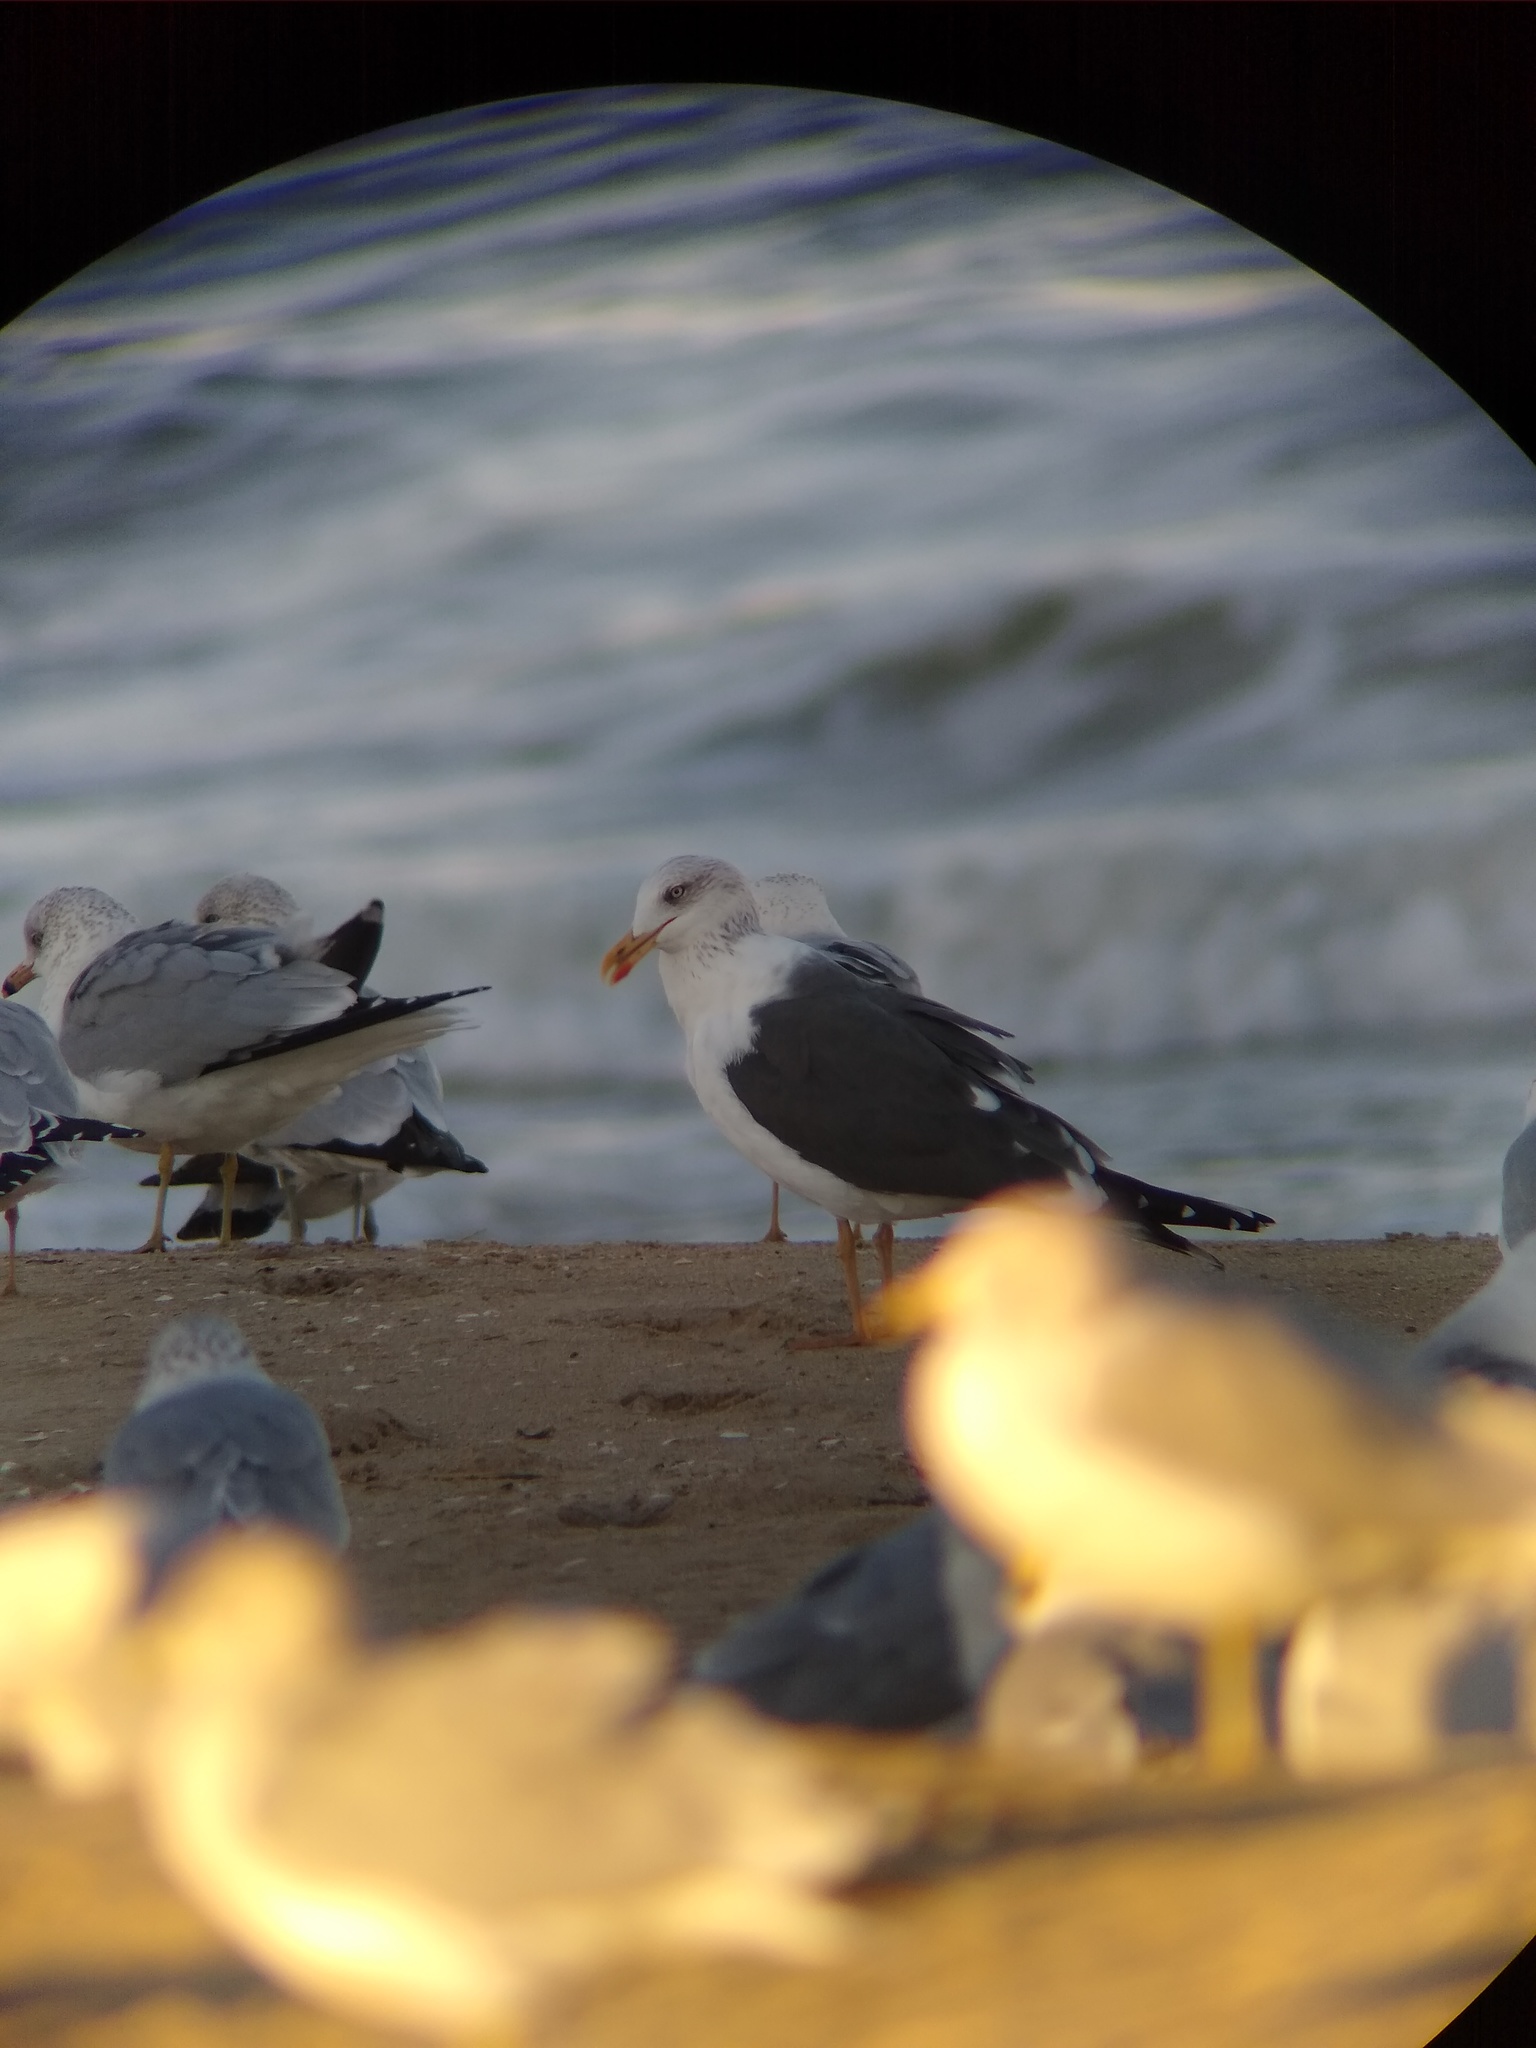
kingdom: Animalia
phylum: Chordata
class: Aves
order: Charadriiformes
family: Laridae
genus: Larus
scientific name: Larus fuscus
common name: Lesser black-backed gull
